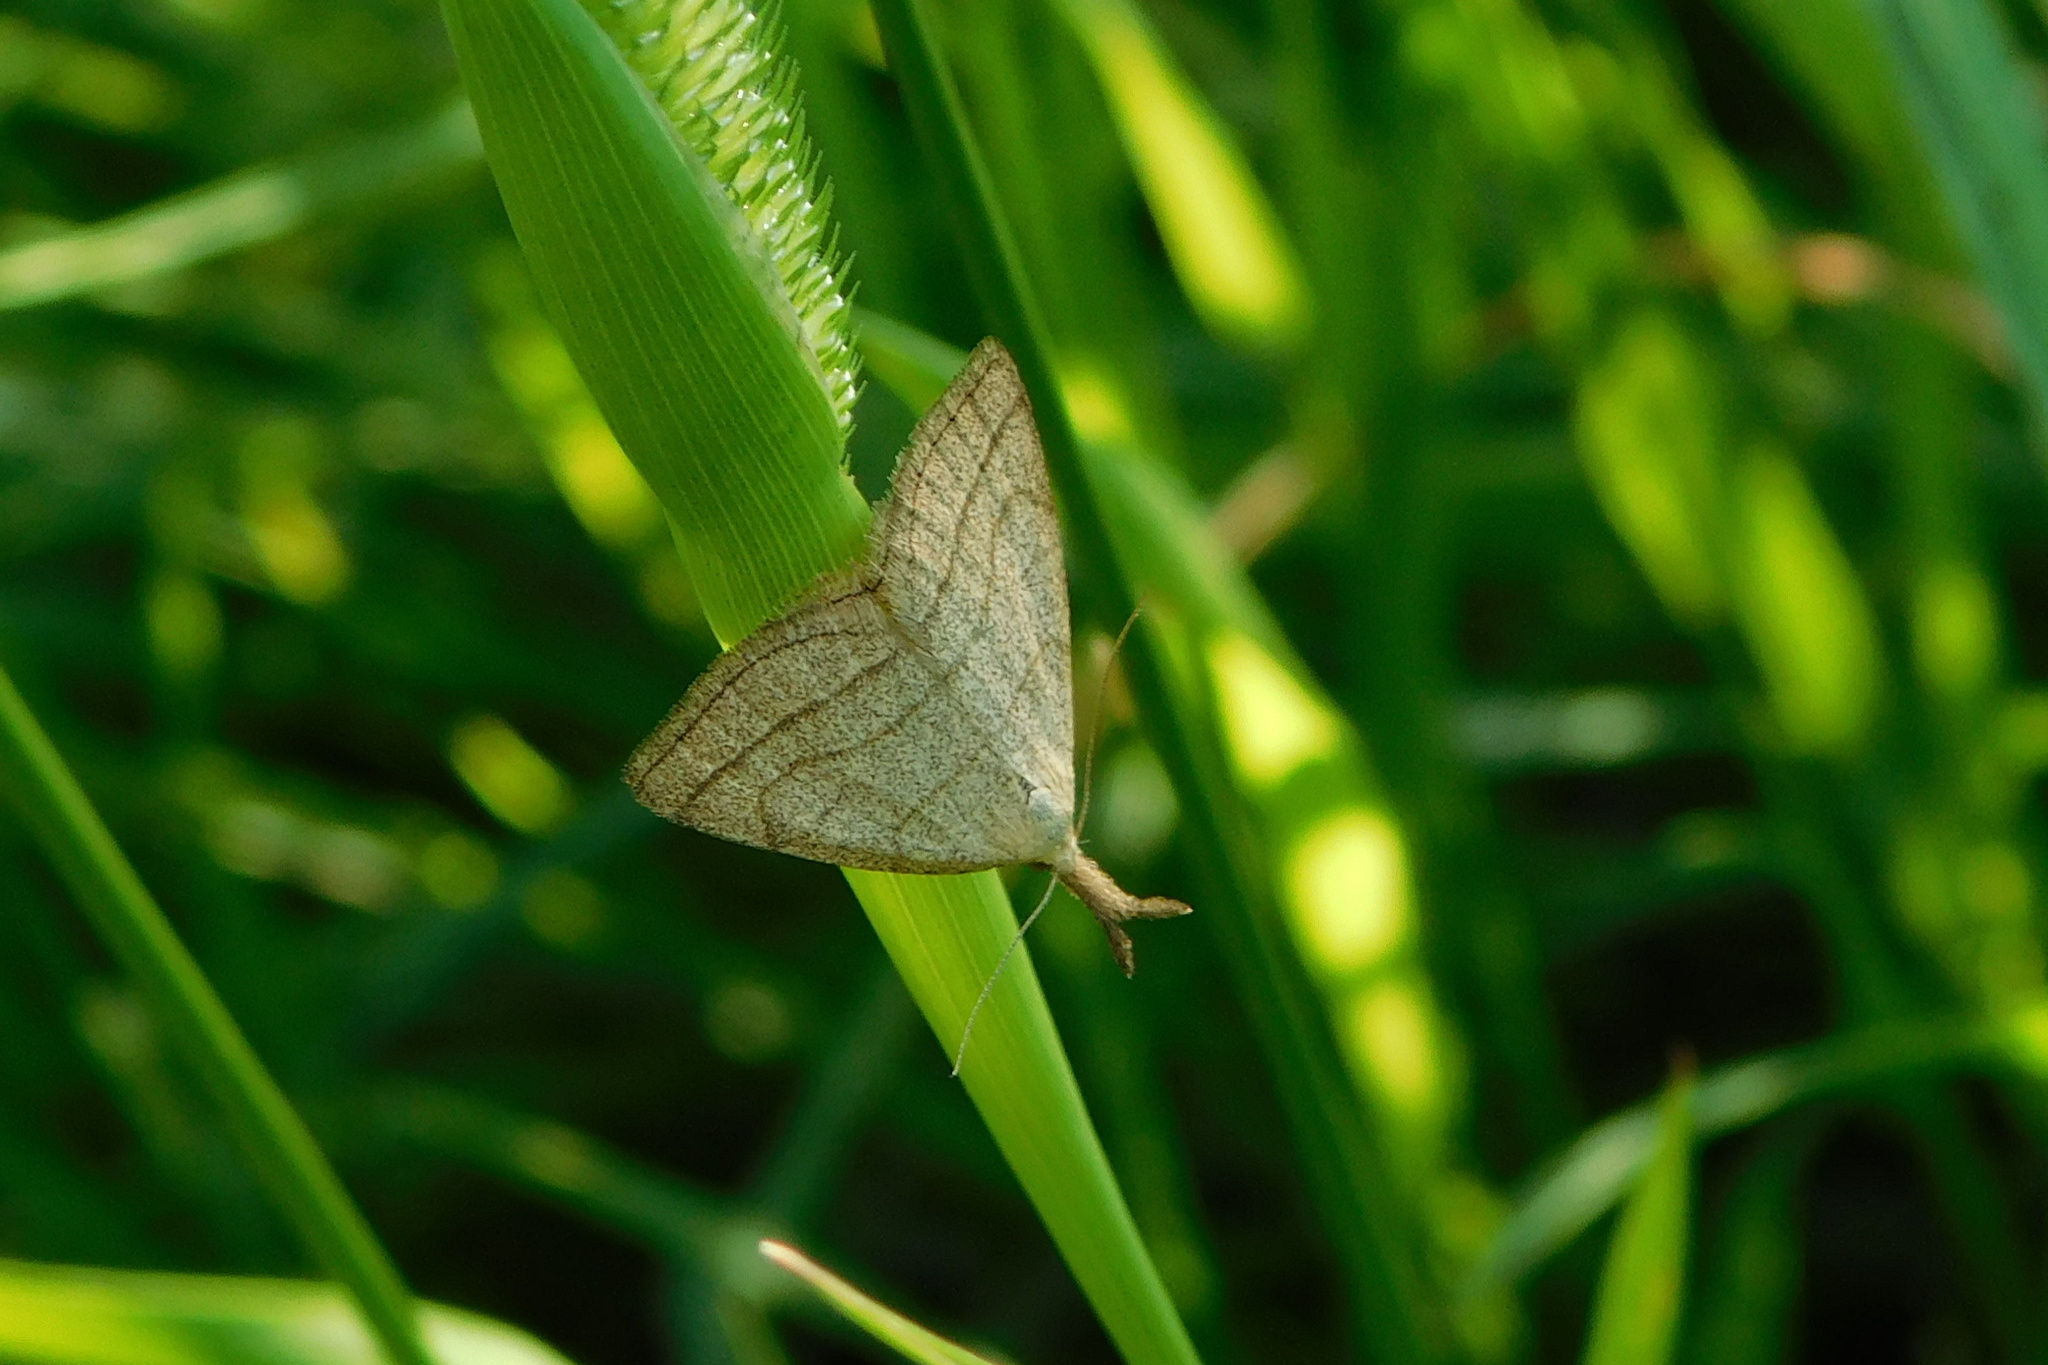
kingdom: Animalia
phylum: Arthropoda
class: Insecta
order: Lepidoptera
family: Erebidae
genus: Polypogon
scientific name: Polypogon tentacularia
